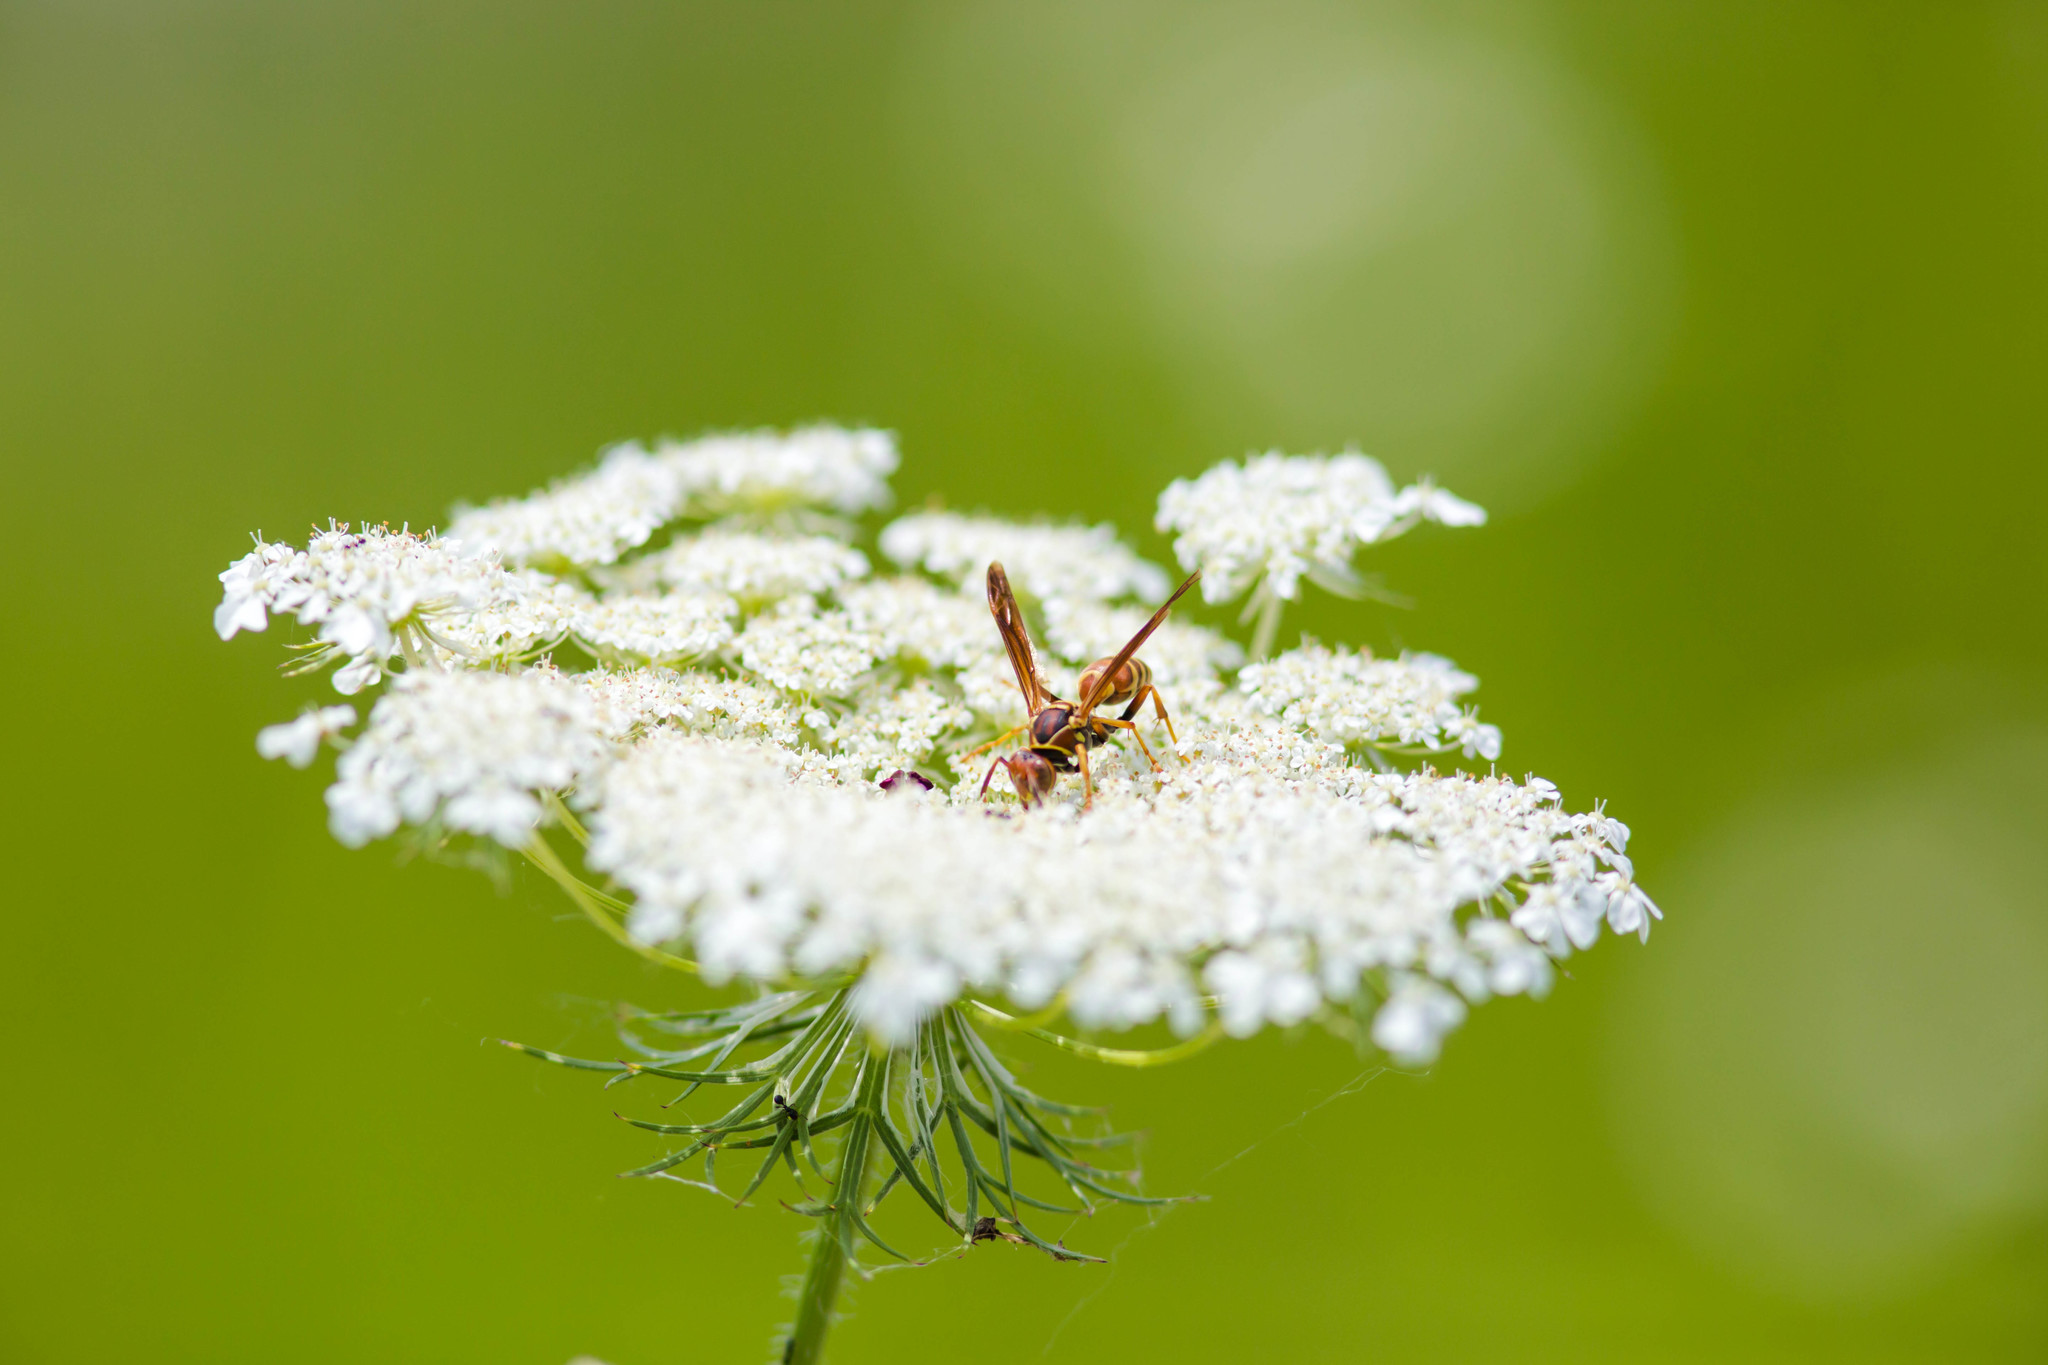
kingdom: Animalia
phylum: Arthropoda
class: Insecta
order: Hymenoptera
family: Eumenidae
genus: Polistes
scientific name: Polistes dorsalis
